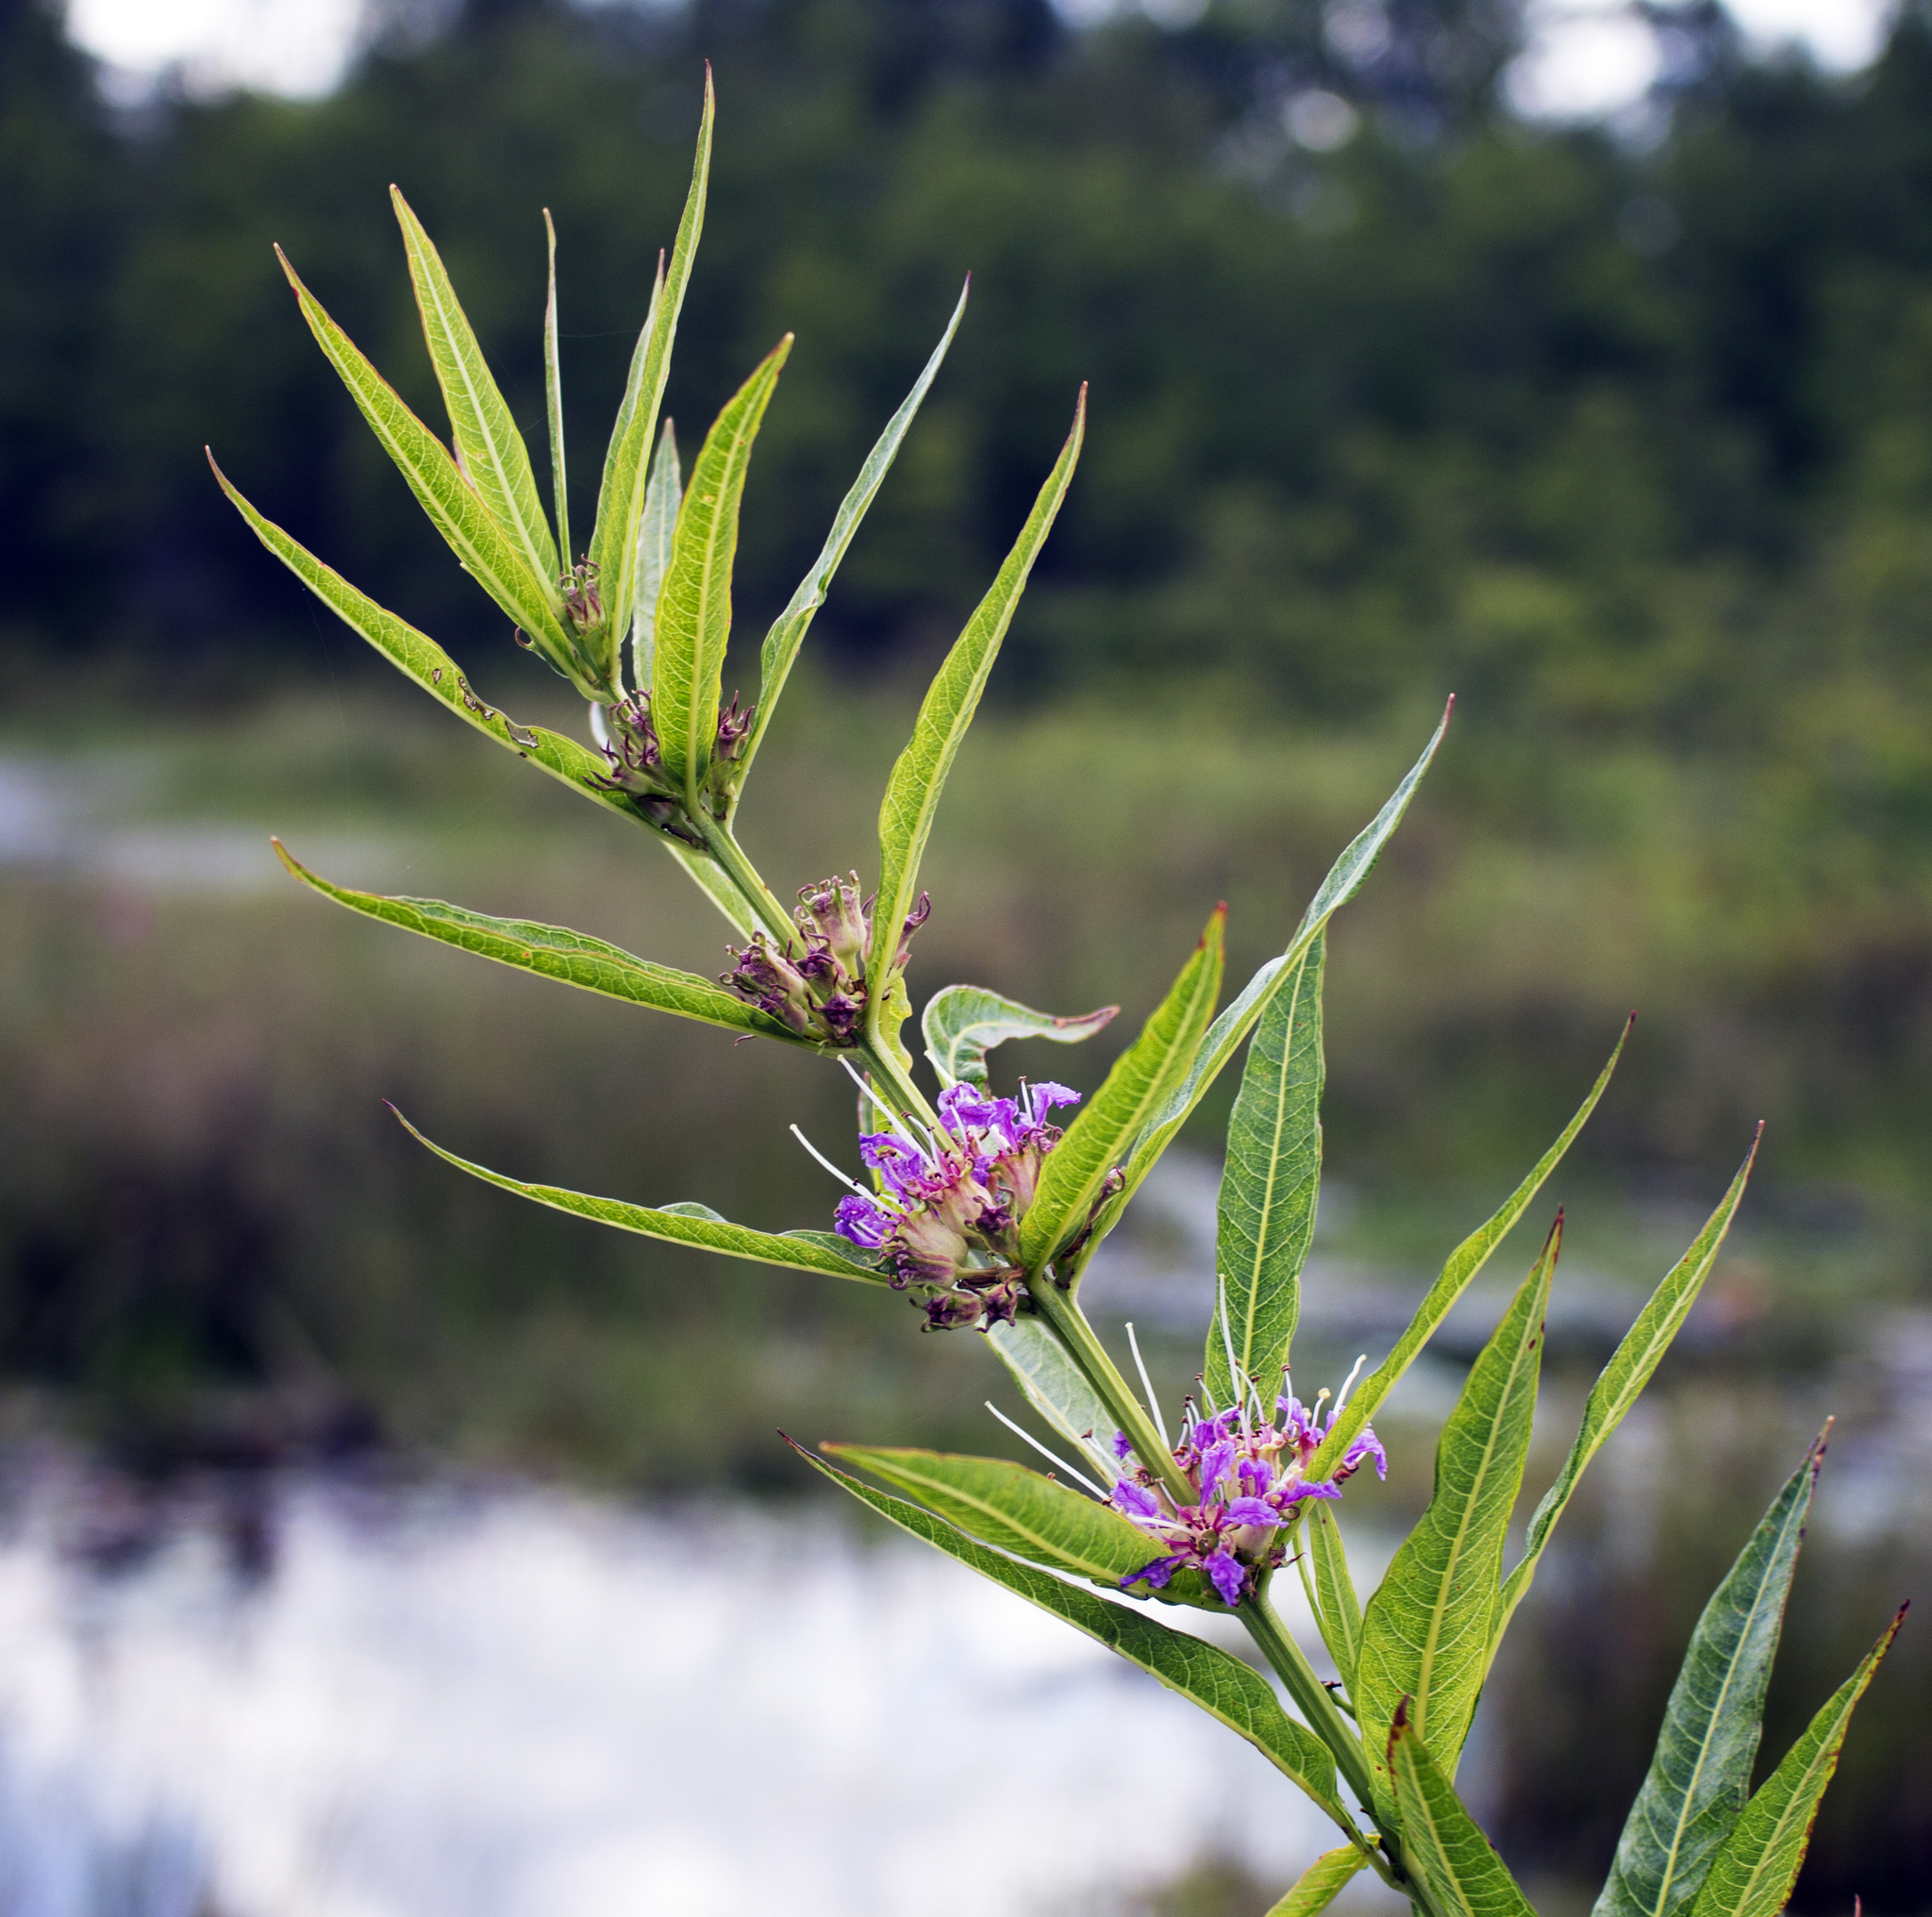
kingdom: Plantae
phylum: Tracheophyta
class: Magnoliopsida
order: Myrtales
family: Lythraceae
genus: Decodon
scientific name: Decodon verticillatus
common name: Hairy swamp loosestrife
